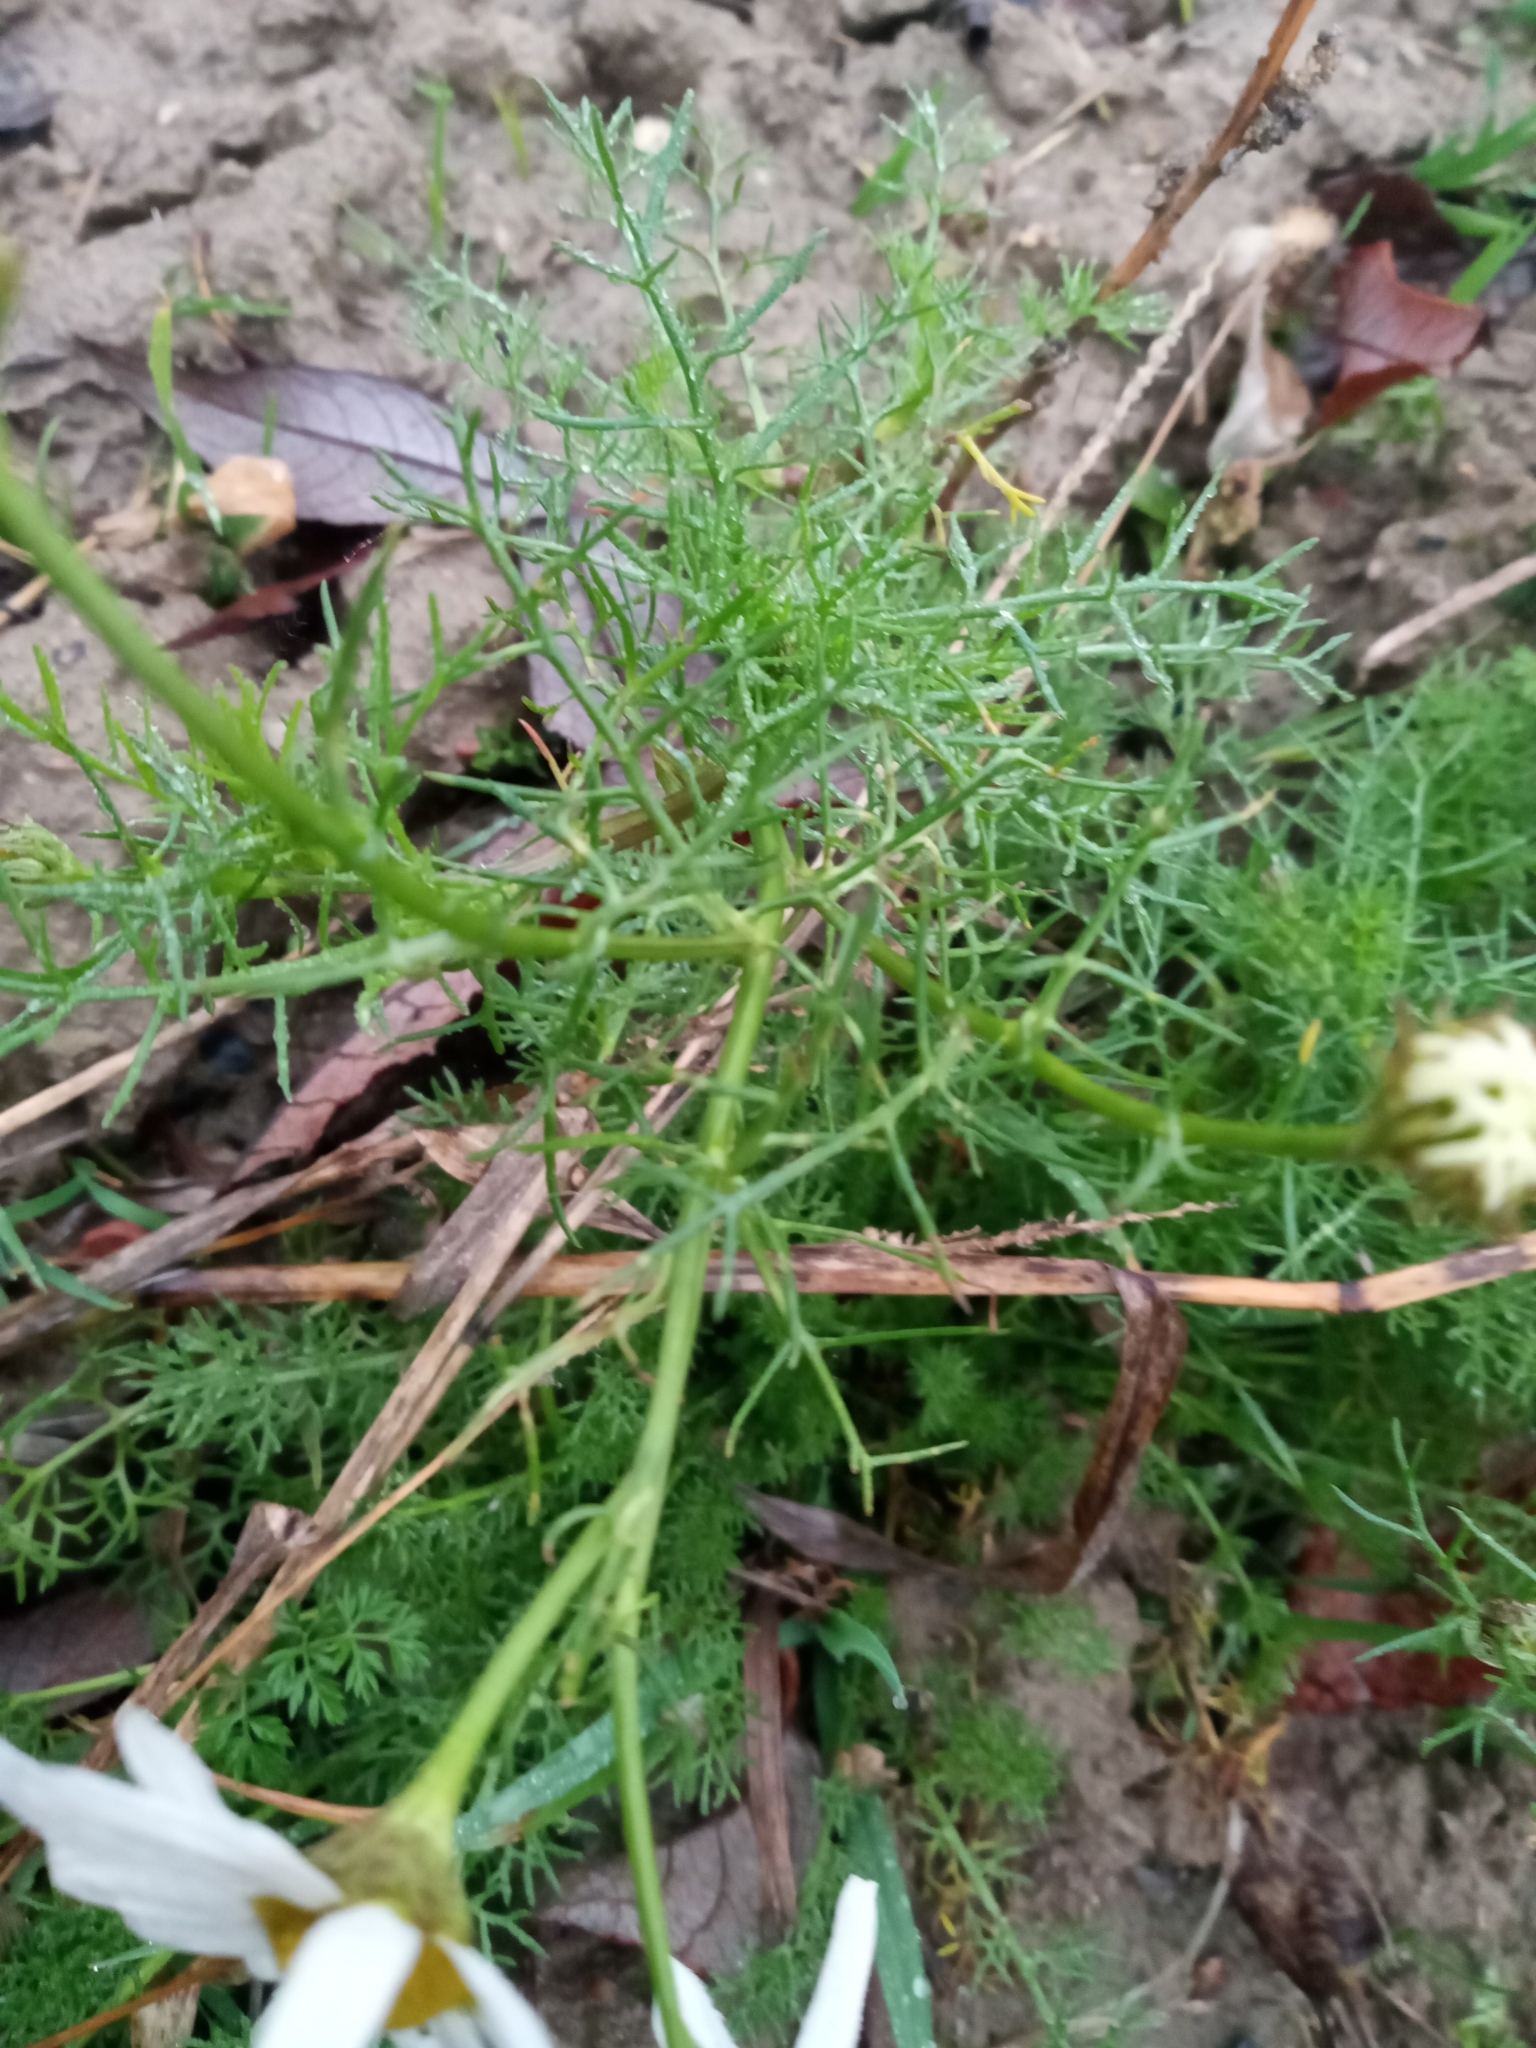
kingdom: Plantae
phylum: Tracheophyta
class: Magnoliopsida
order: Asterales
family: Asteraceae
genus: Tripleurospermum
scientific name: Tripleurospermum inodorum
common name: Scentless mayweed
